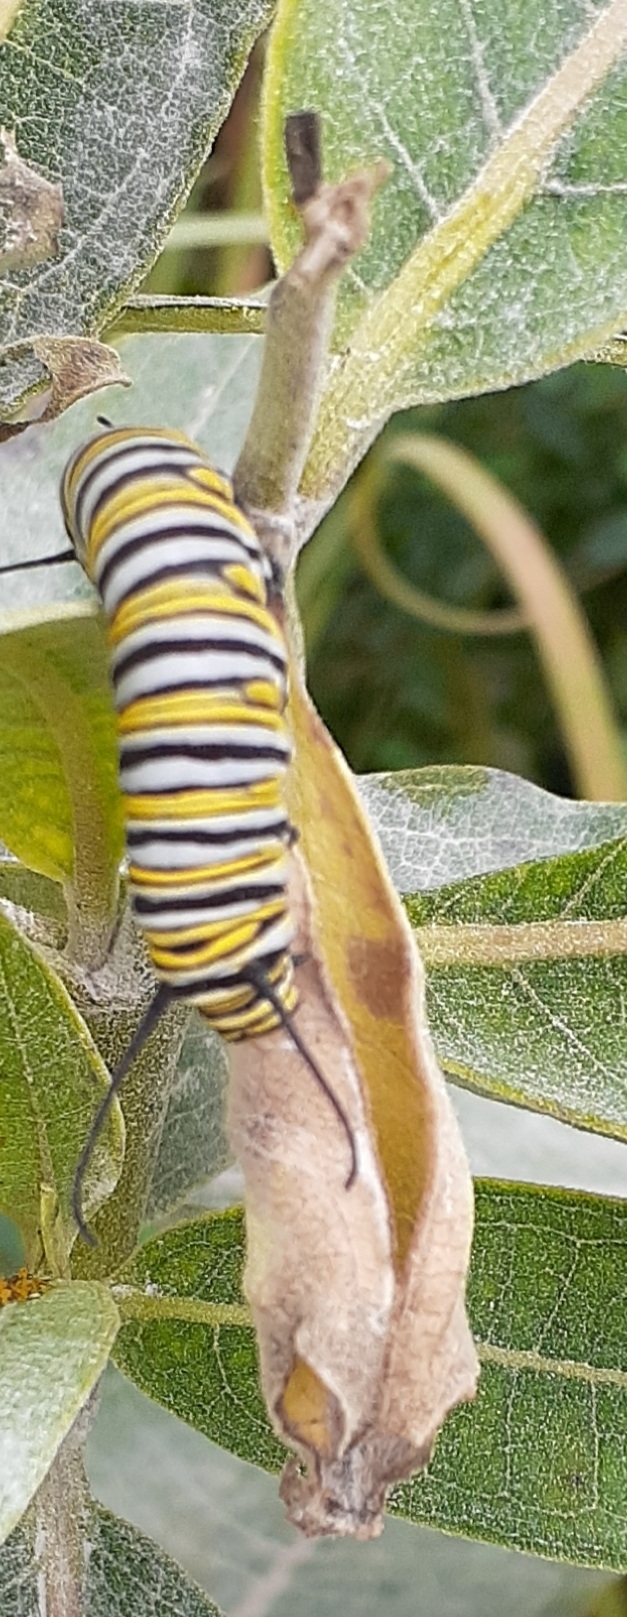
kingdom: Animalia
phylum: Arthropoda
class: Insecta
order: Lepidoptera
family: Nymphalidae
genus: Danaus
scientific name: Danaus plexippus
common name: Monarch
